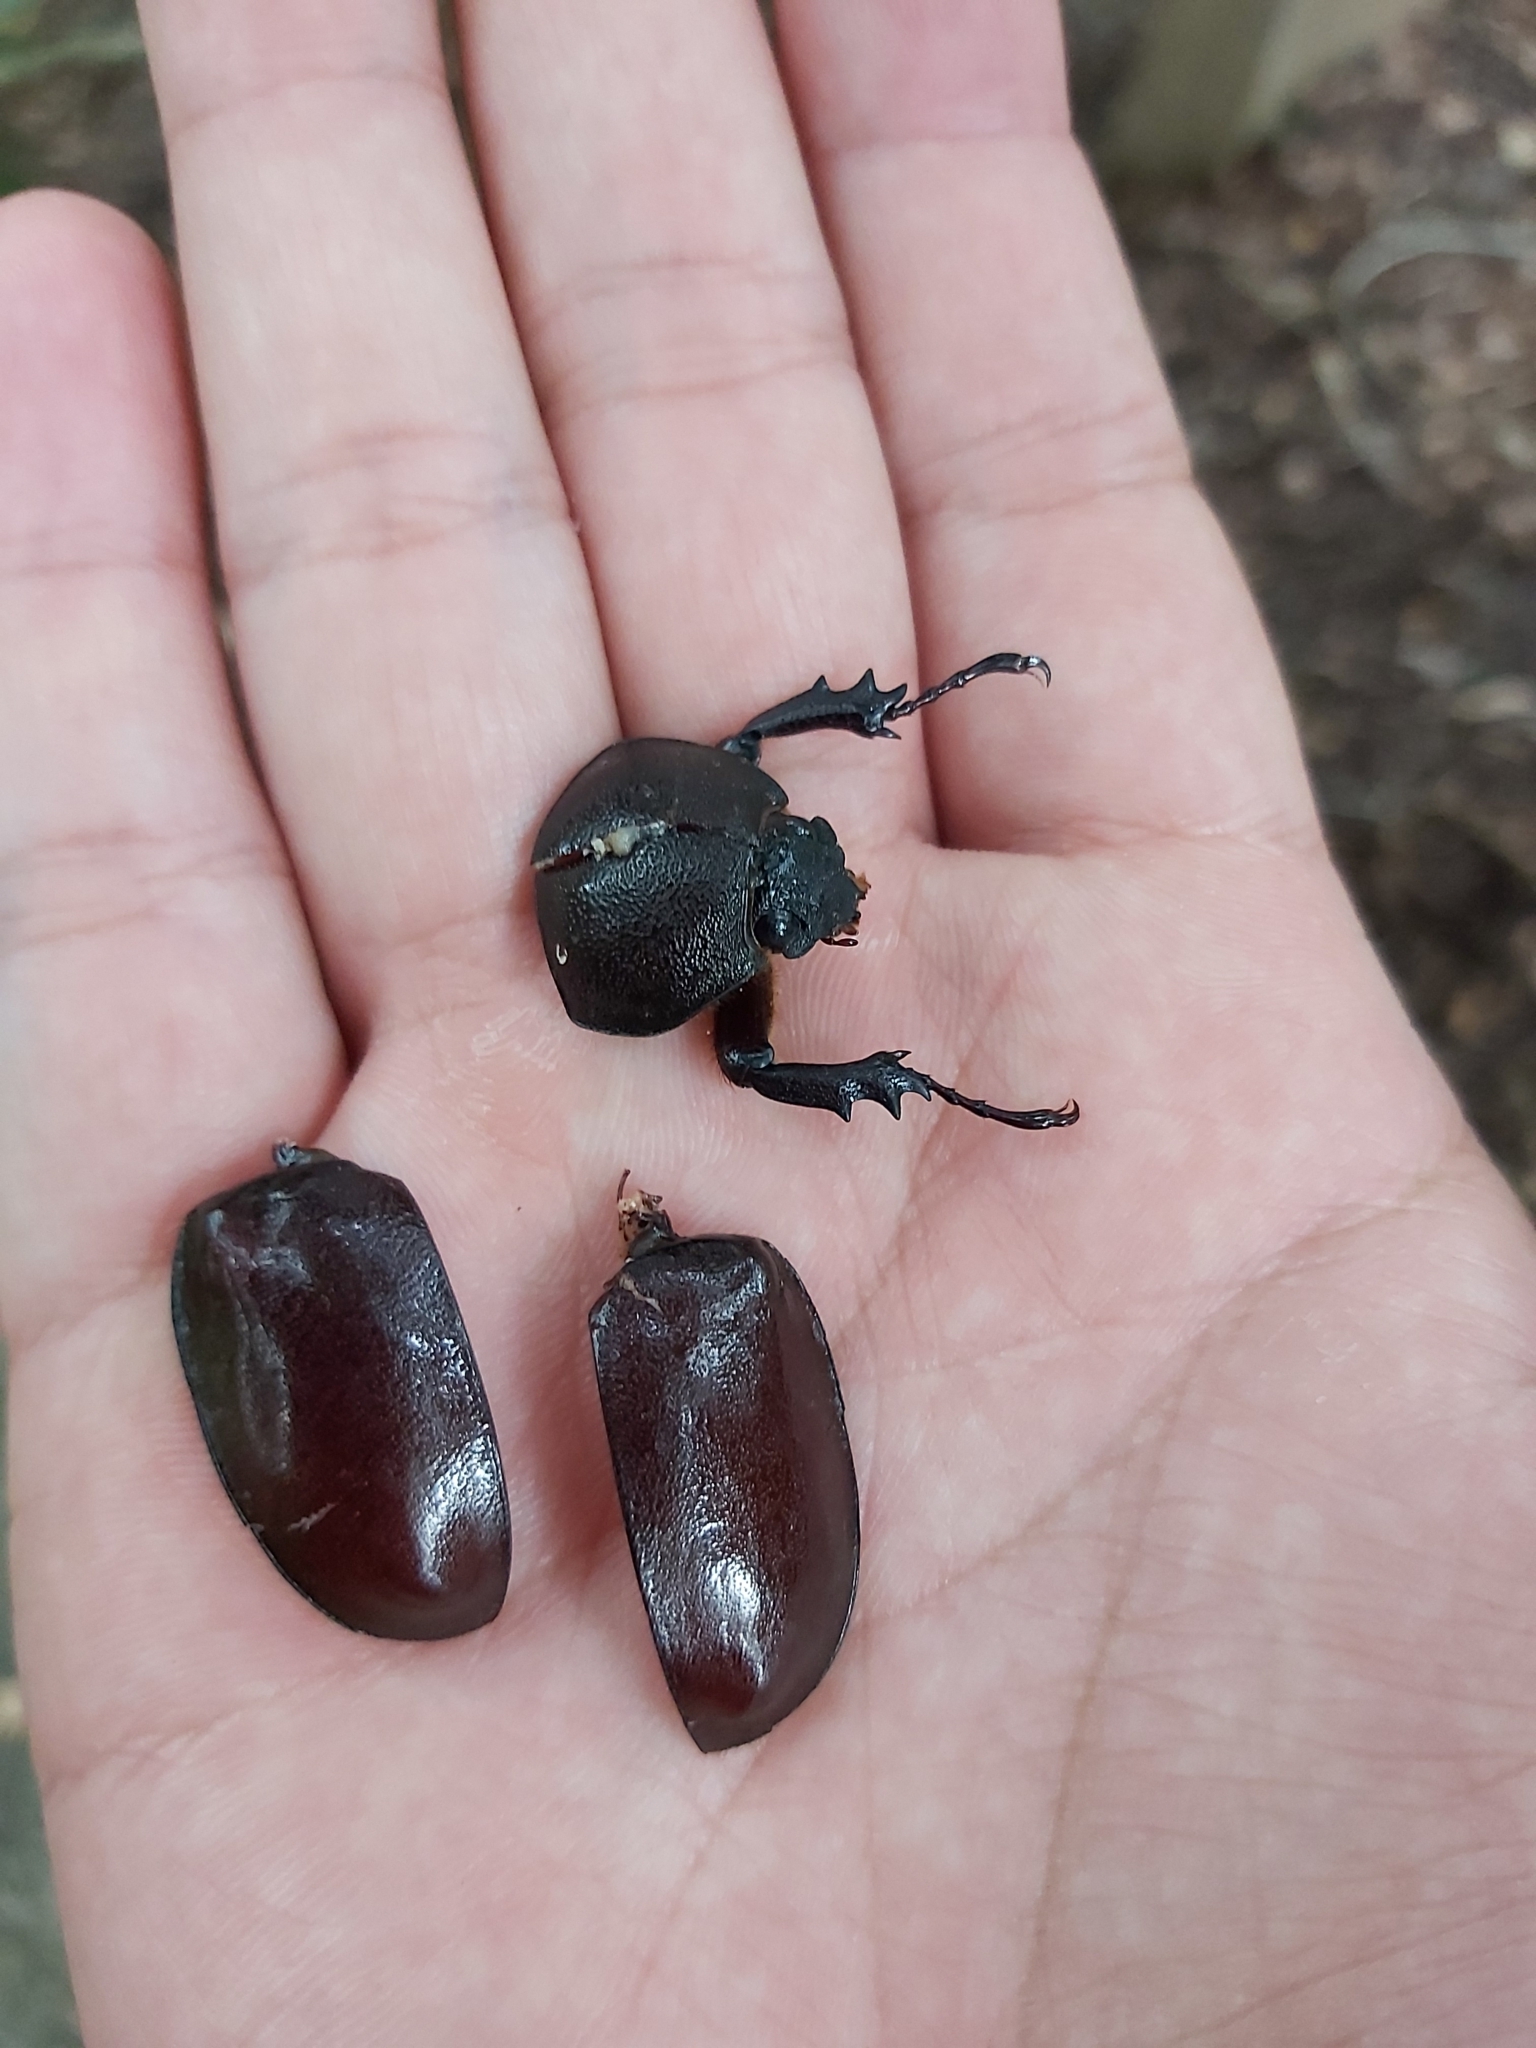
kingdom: Animalia
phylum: Arthropoda
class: Insecta
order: Coleoptera
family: Scarabaeidae
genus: Xylotrupes
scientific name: Xylotrupes australicus
